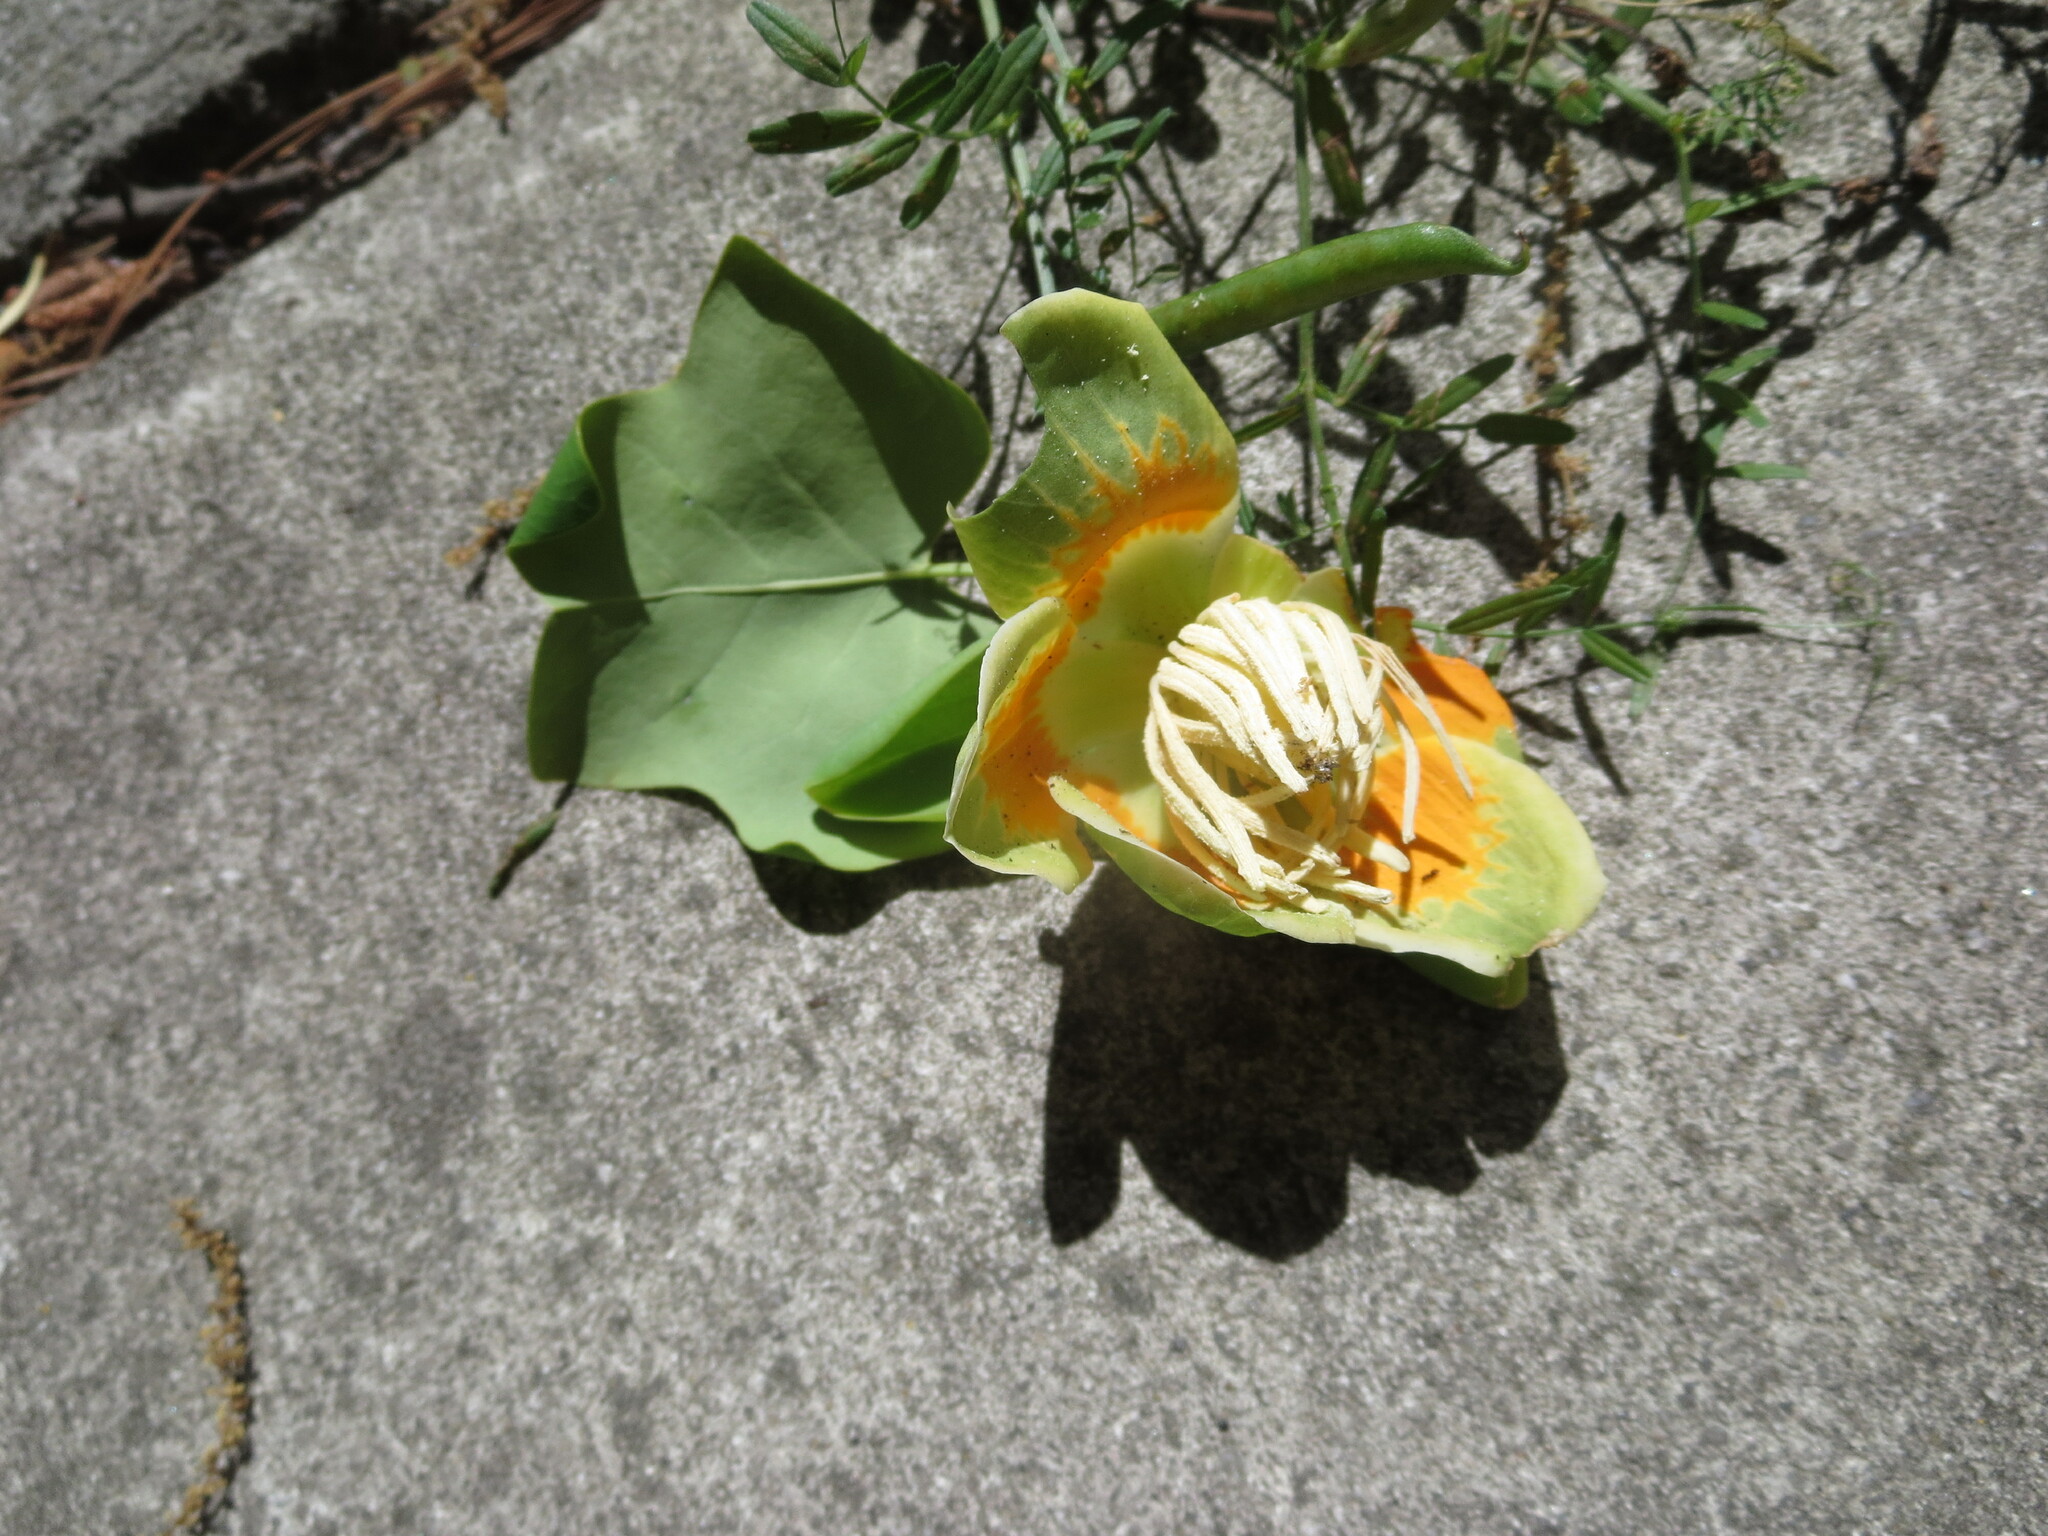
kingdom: Plantae
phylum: Tracheophyta
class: Magnoliopsida
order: Magnoliales
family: Magnoliaceae
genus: Liriodendron
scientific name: Liriodendron tulipifera
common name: Tulip tree
